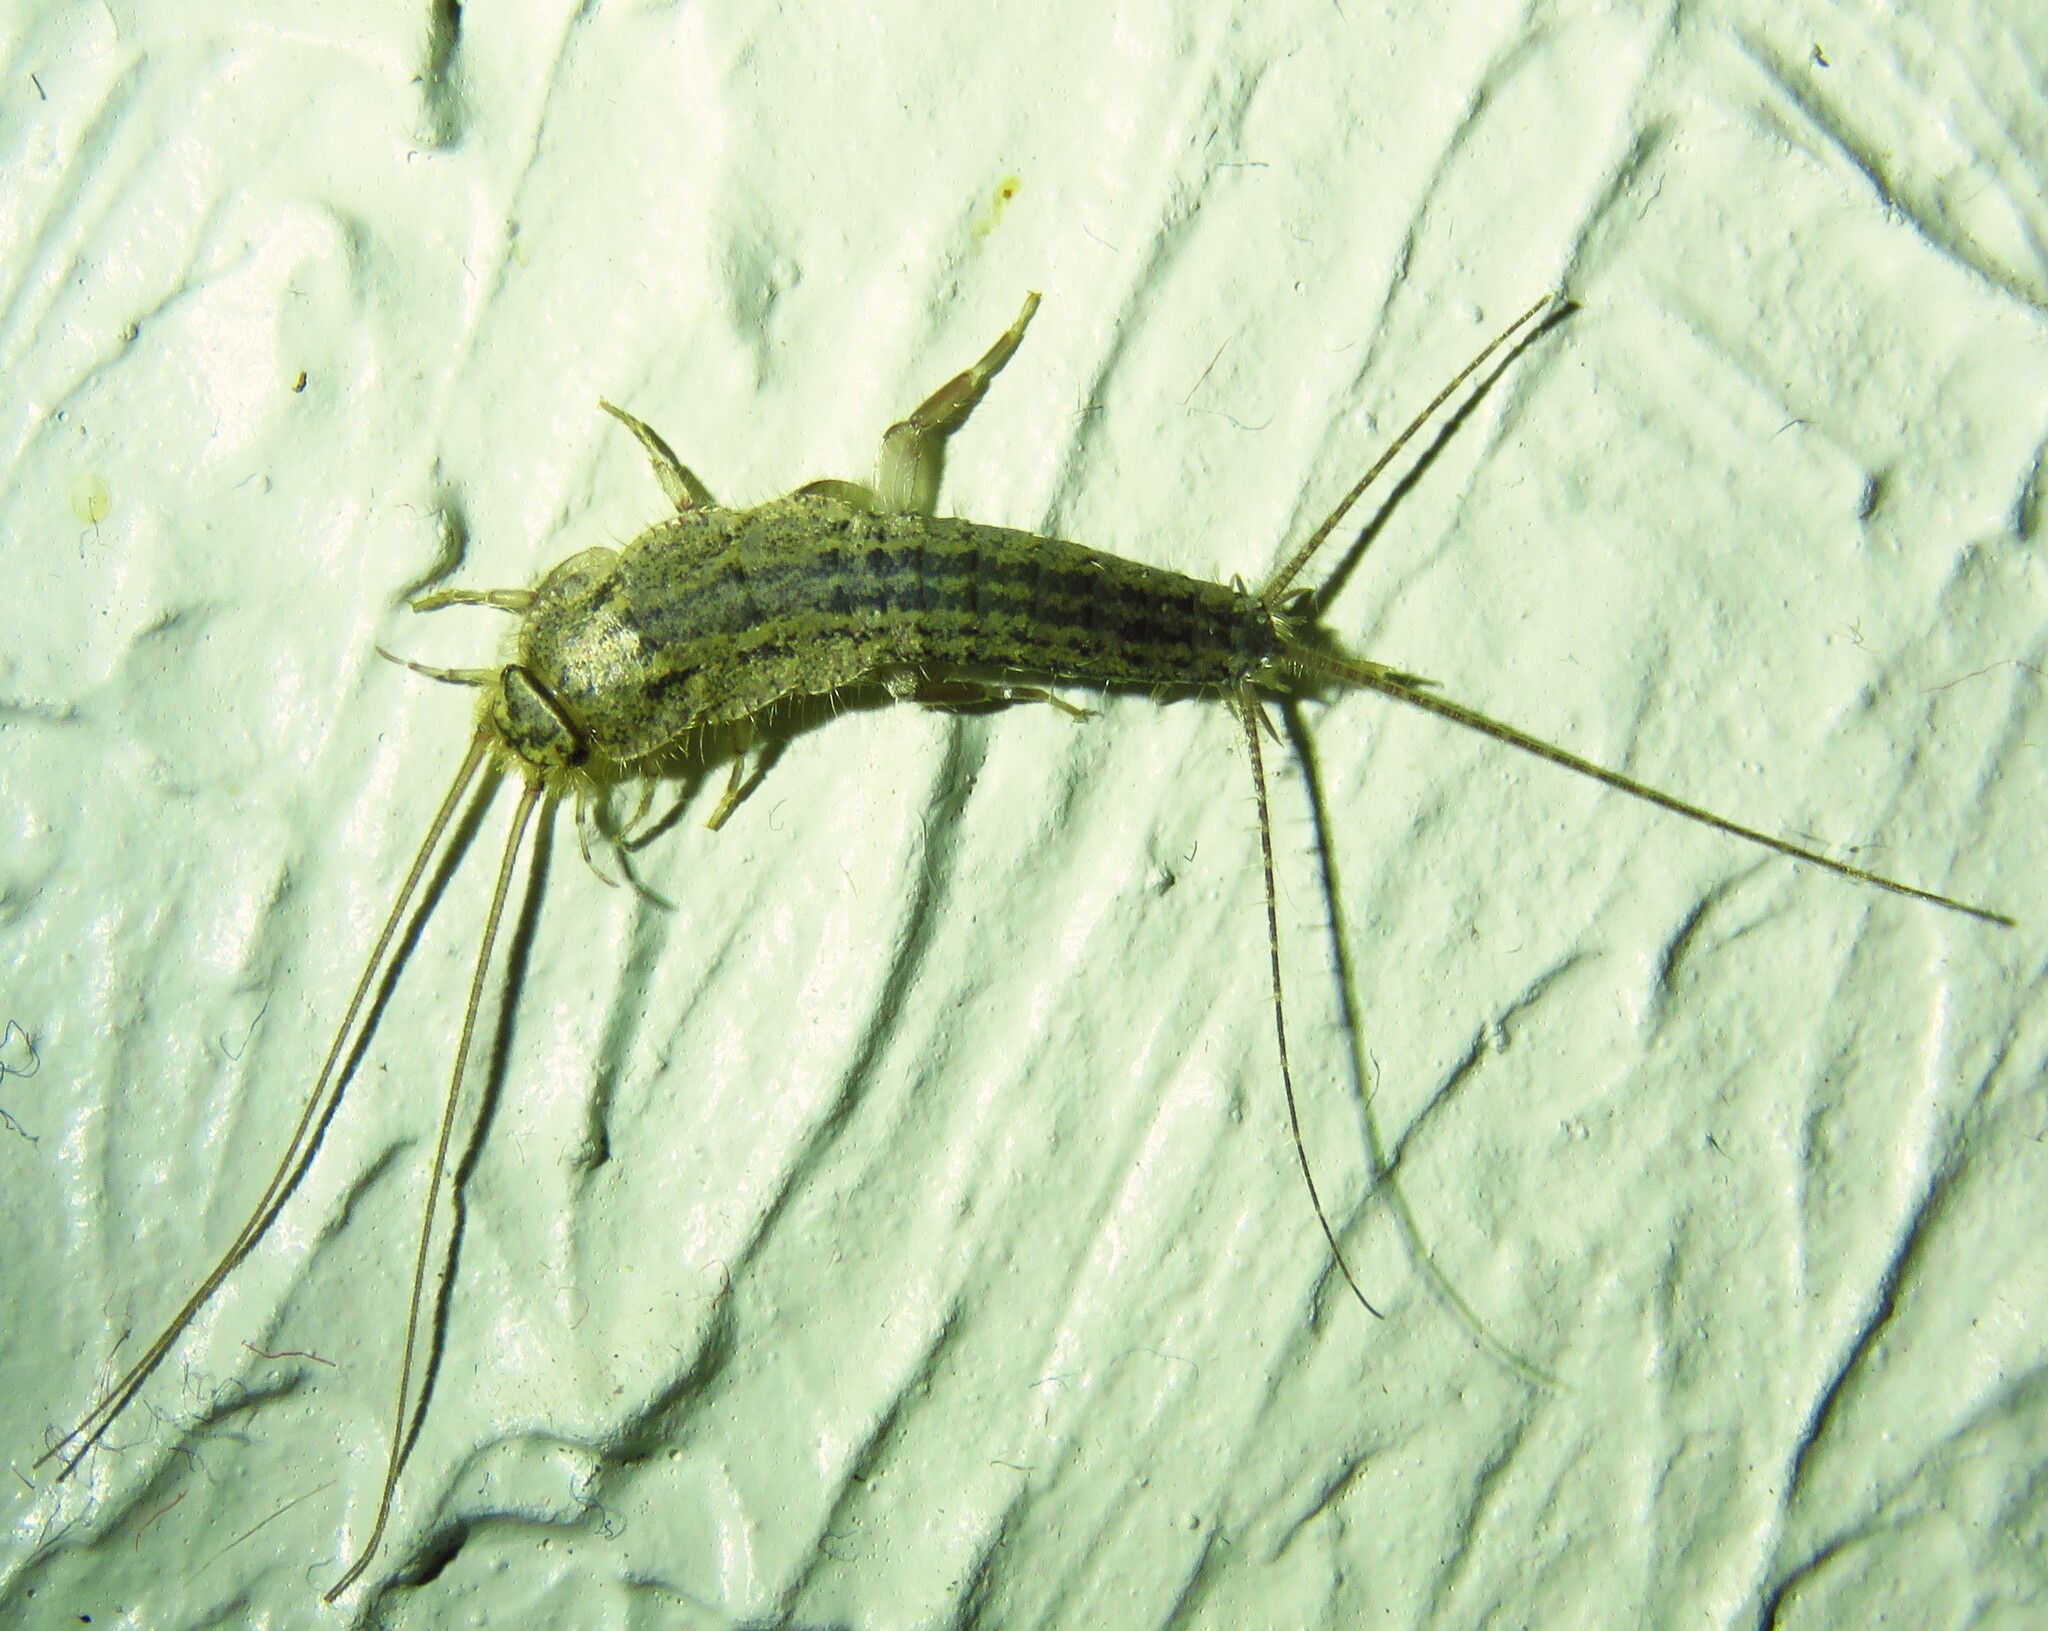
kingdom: Animalia
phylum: Arthropoda
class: Insecta
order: Zygentoma
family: Lepismatidae
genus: Ctenolepisma
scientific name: Ctenolepisma lineata
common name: Four-lined silverfish
